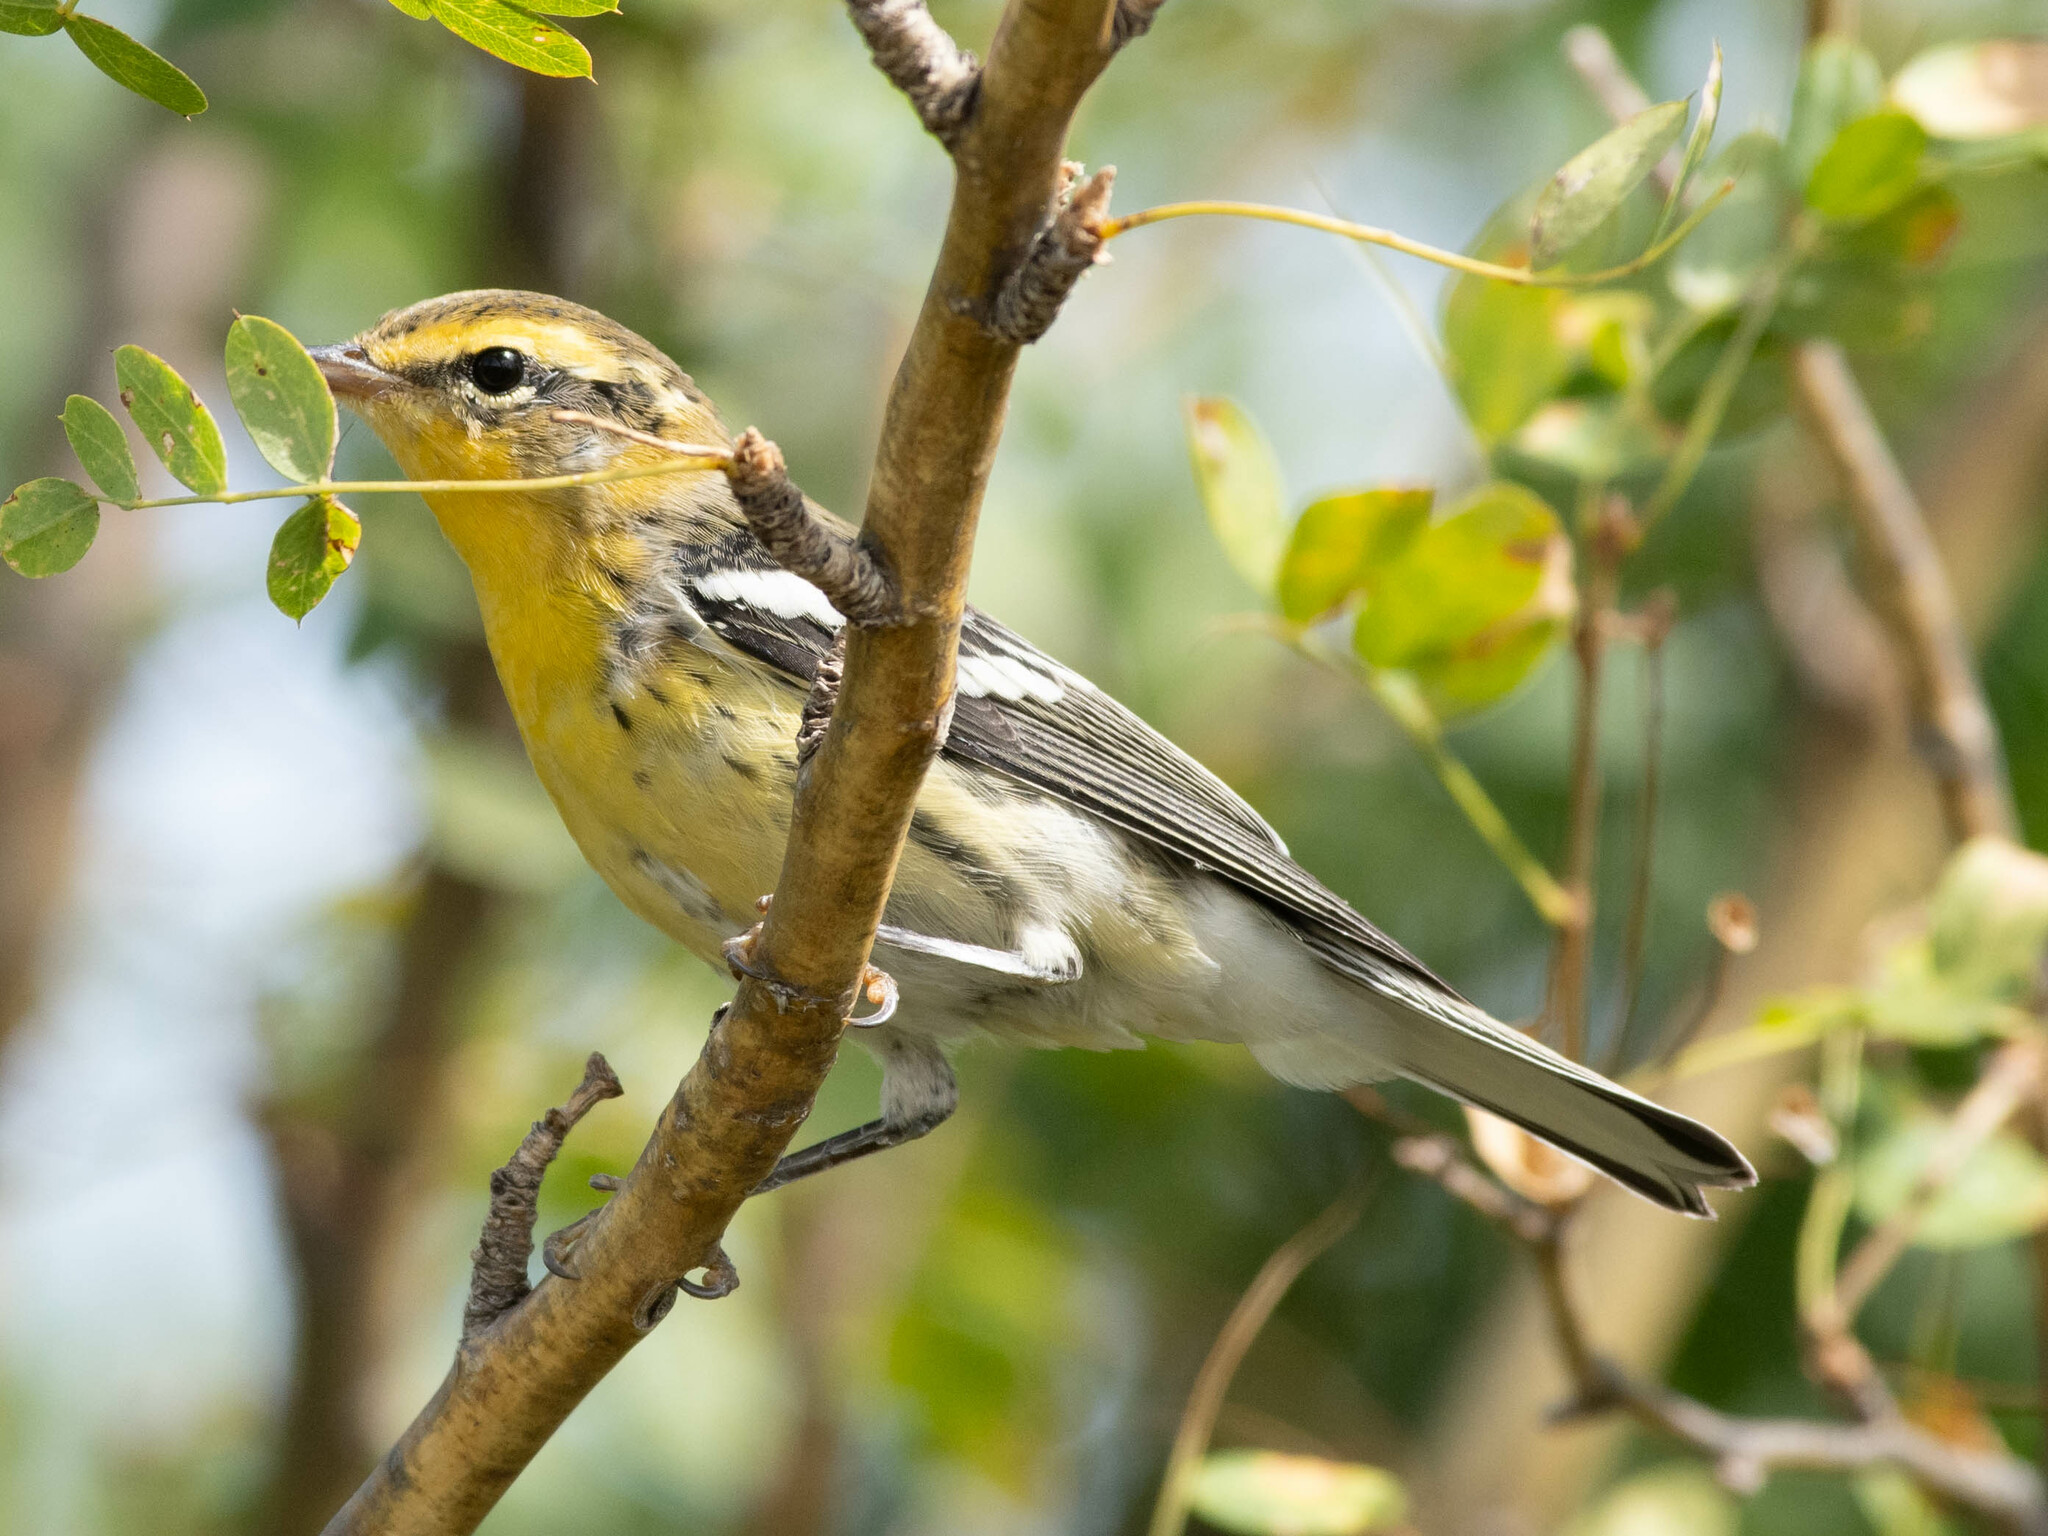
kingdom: Animalia
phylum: Chordata
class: Aves
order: Passeriformes
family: Parulidae
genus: Setophaga
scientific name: Setophaga fusca
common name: Blackburnian warbler
